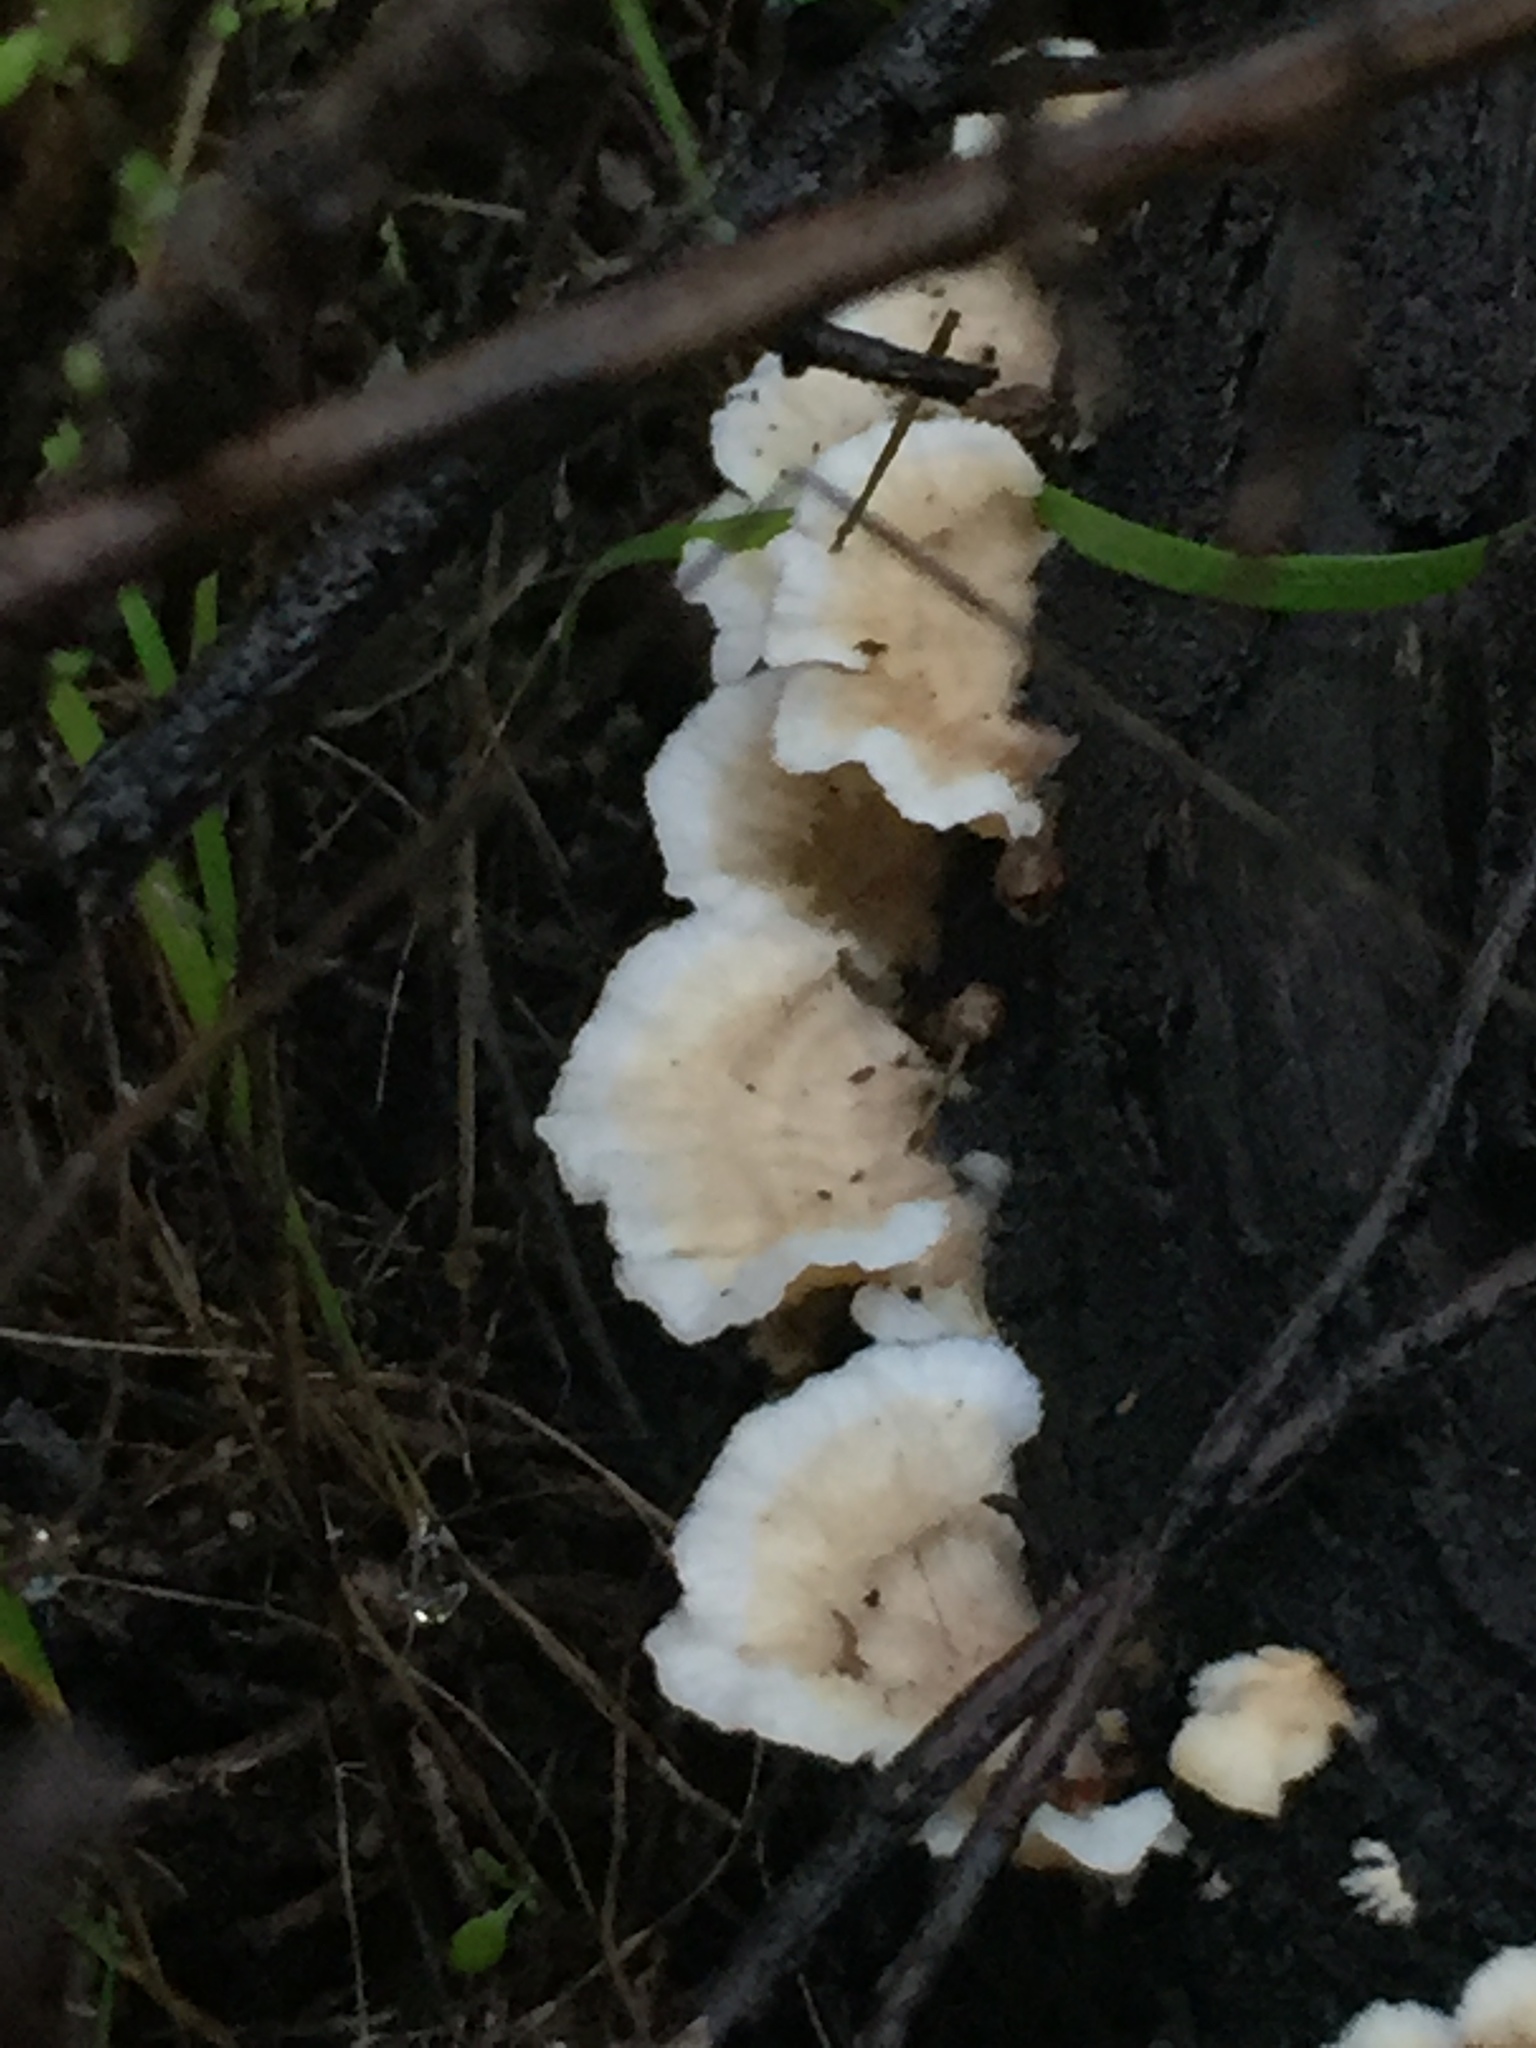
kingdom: Fungi
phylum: Basidiomycota
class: Agaricomycetes
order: Polyporales
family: Meruliaceae
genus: Phlebia
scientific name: Phlebia tremellosa
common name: Jelly rot
